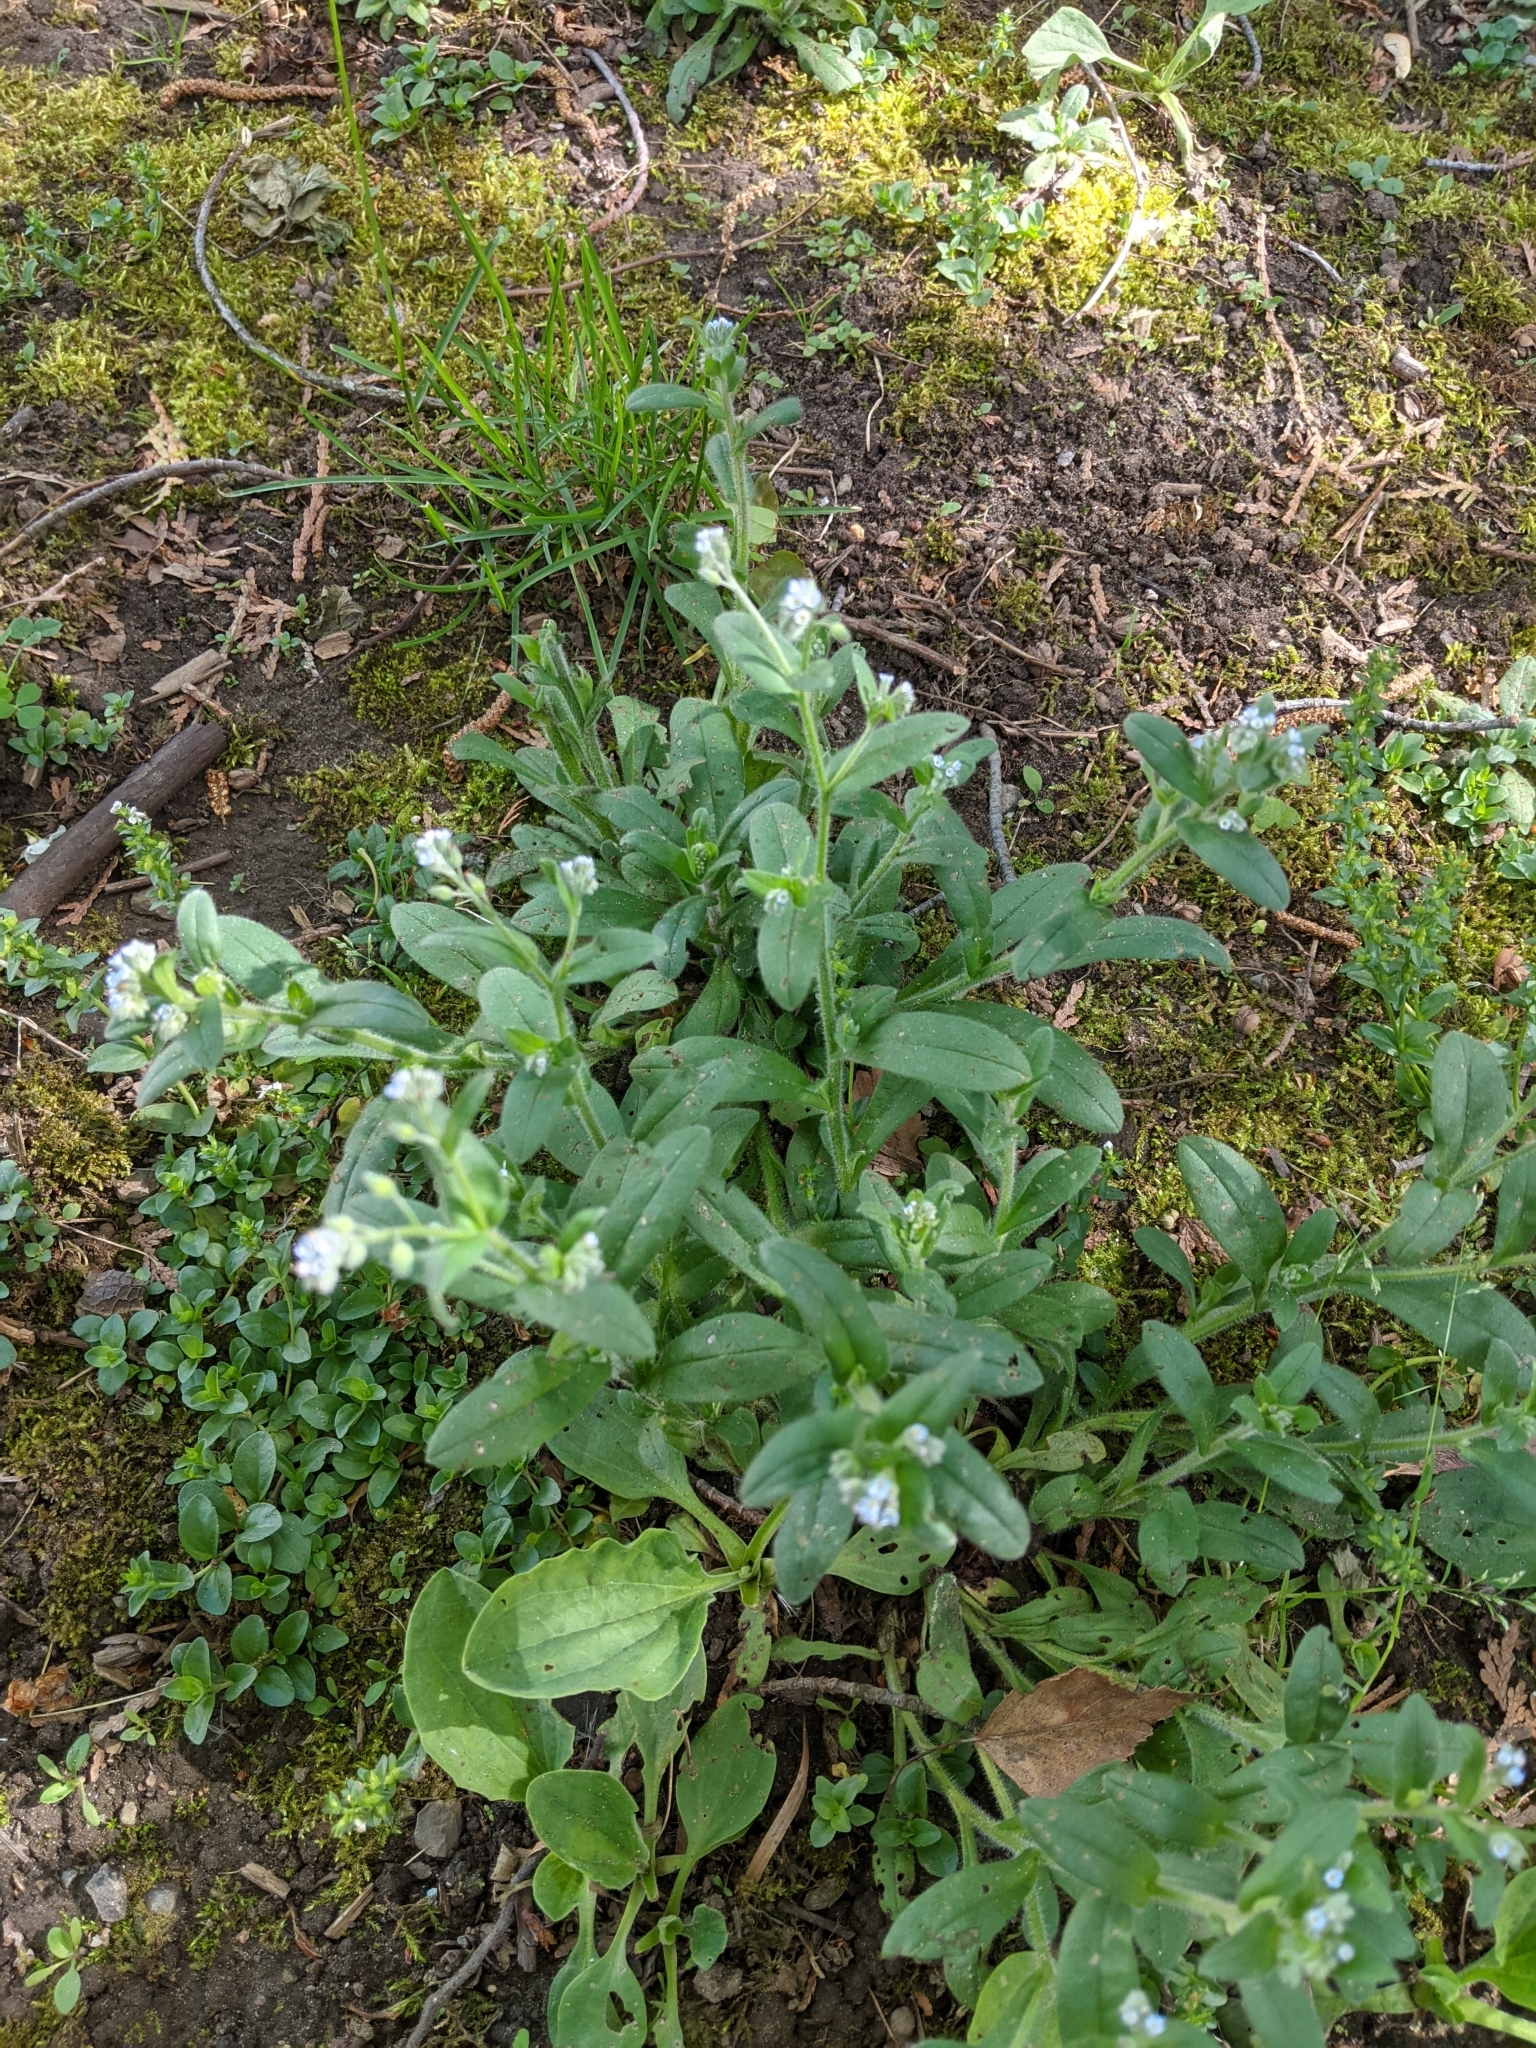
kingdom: Plantae
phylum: Tracheophyta
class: Magnoliopsida
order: Boraginales
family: Boraginaceae
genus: Myosotis
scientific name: Myosotis arvensis
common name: Field forget-me-not
